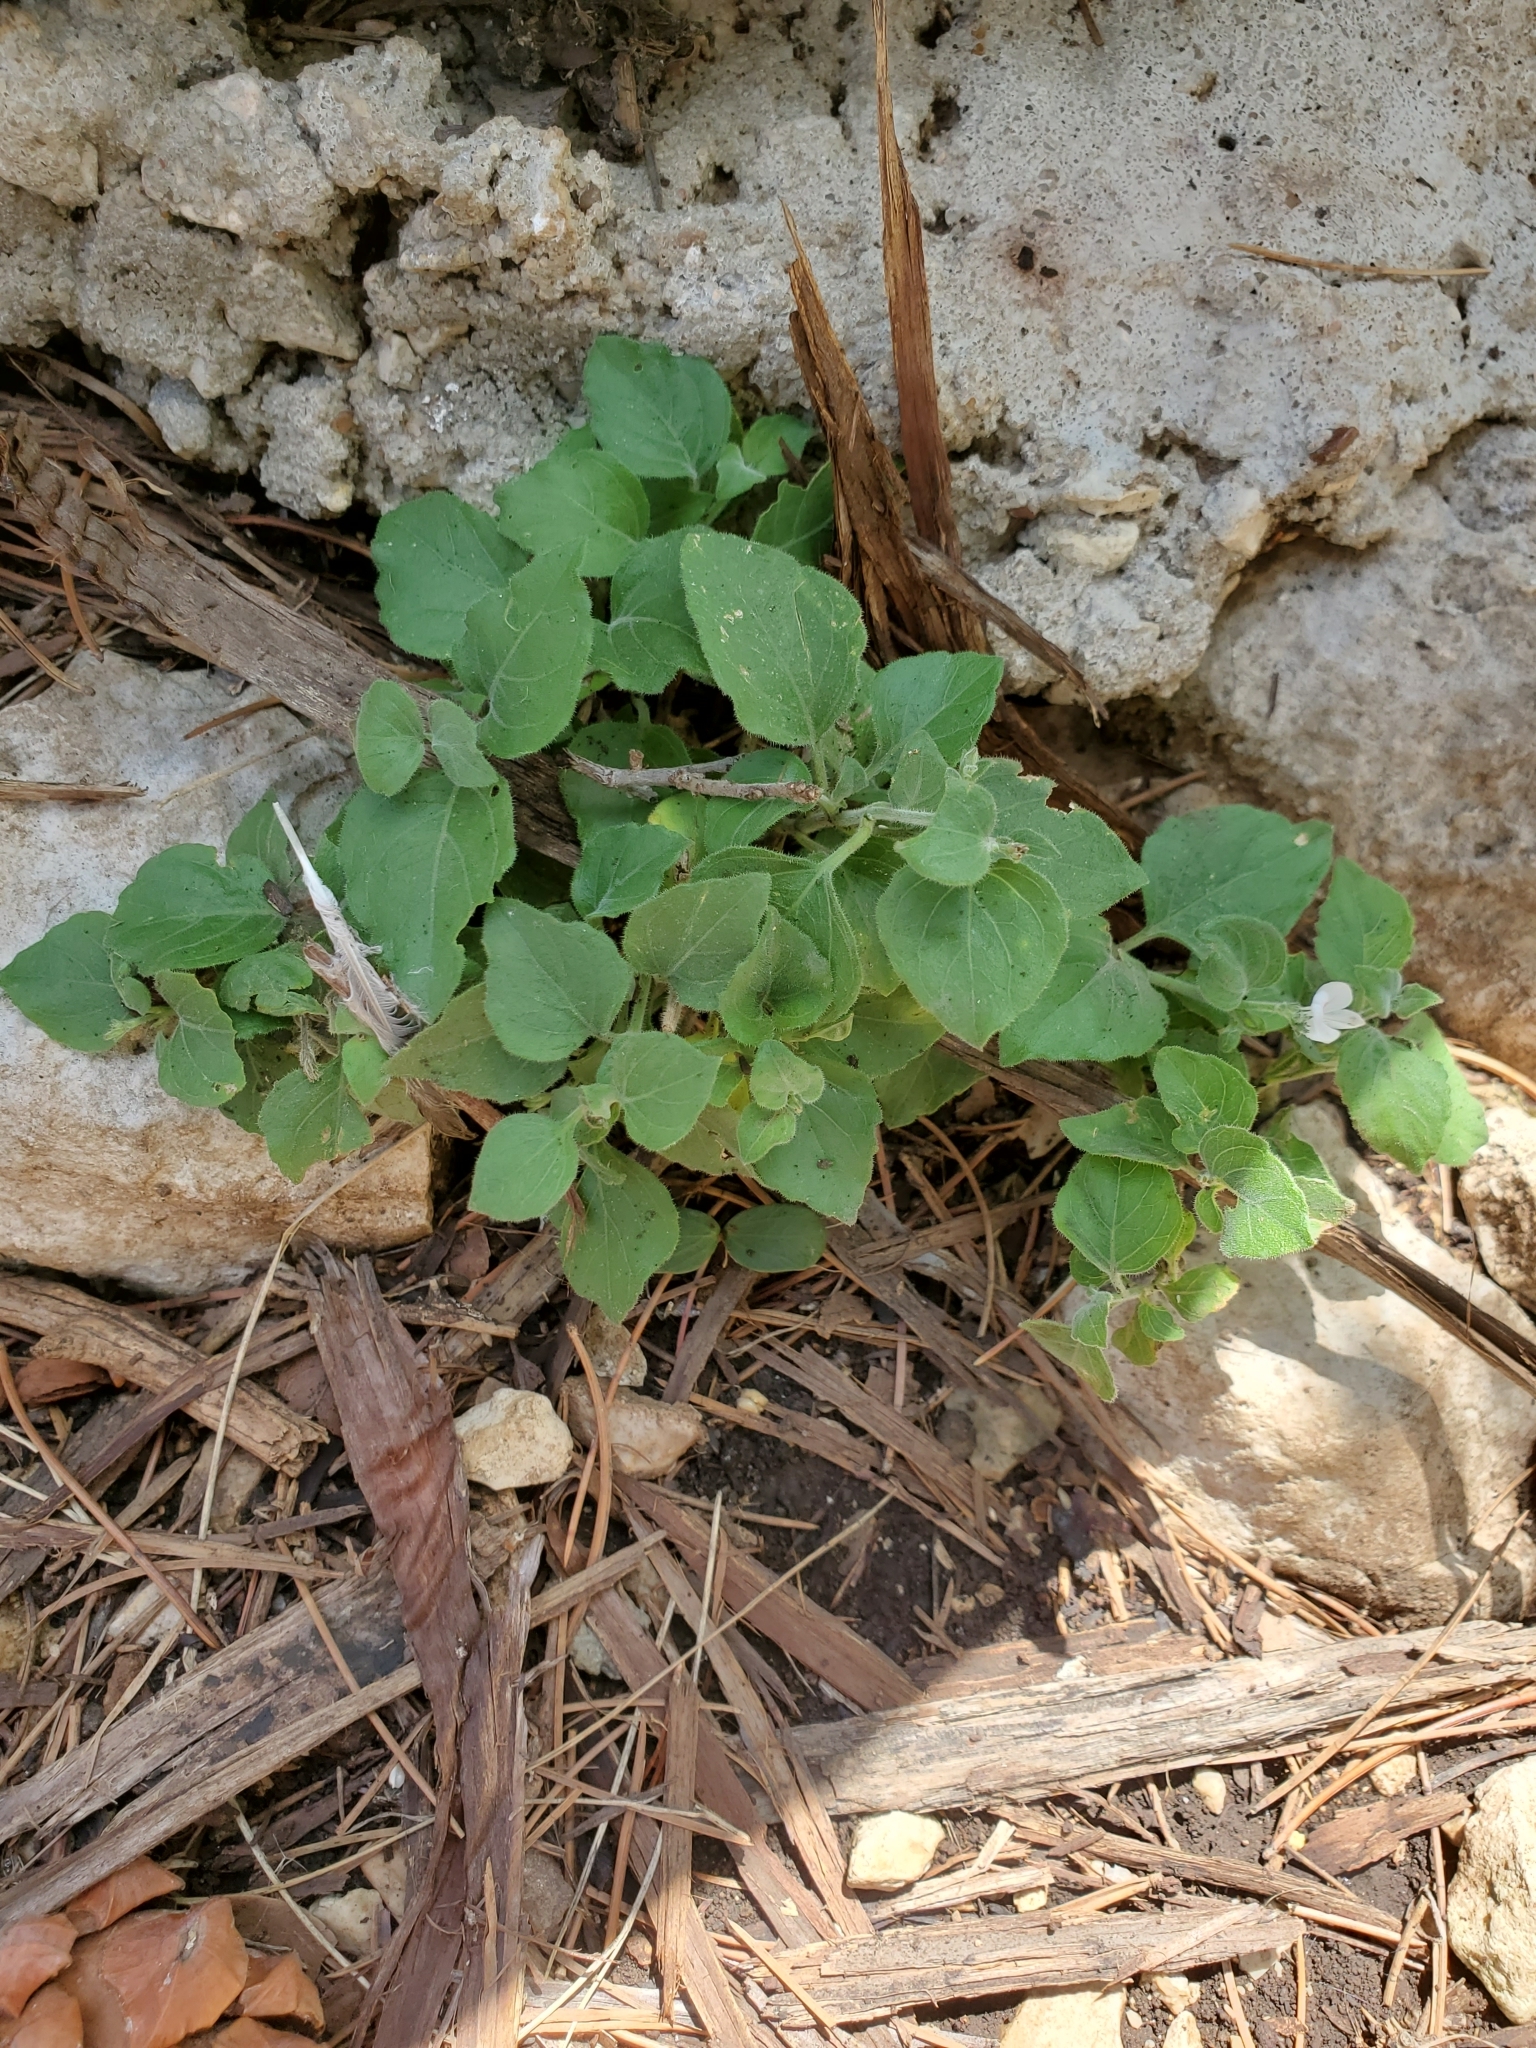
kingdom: Plantae
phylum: Tracheophyta
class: Magnoliopsida
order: Lamiales
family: Acanthaceae
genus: Carlowrightia
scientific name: Carlowrightia torreyana
